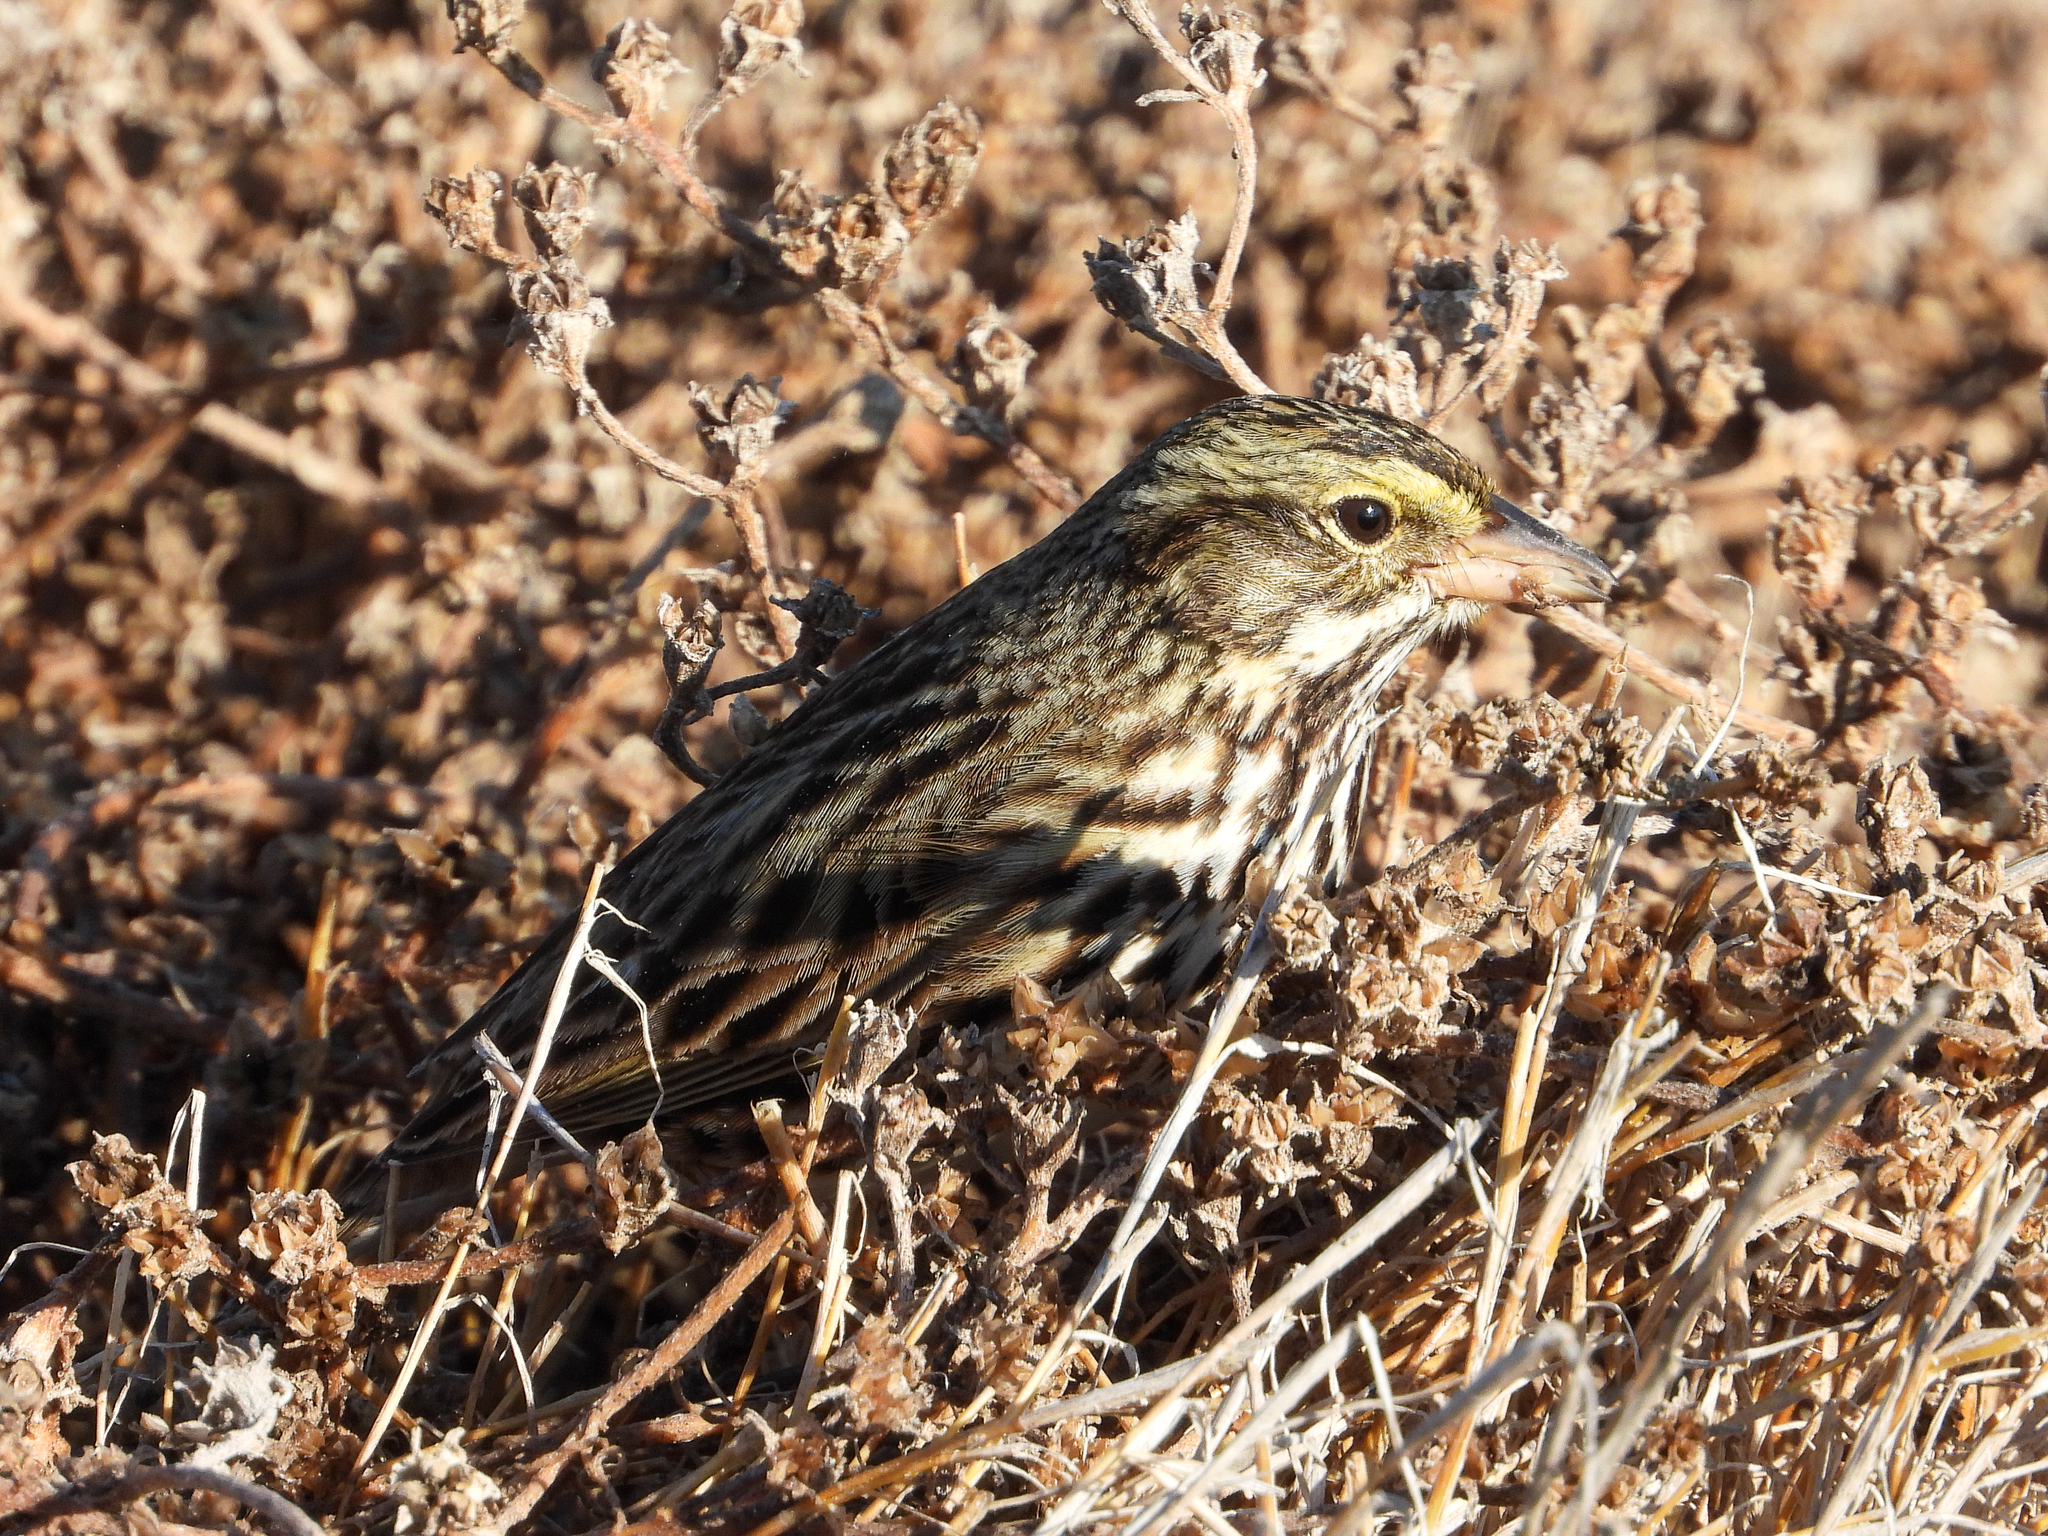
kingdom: Animalia
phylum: Chordata
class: Aves
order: Passeriformes
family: Passerellidae
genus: Passerculus
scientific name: Passerculus sandwichensis
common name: Savannah sparrow
